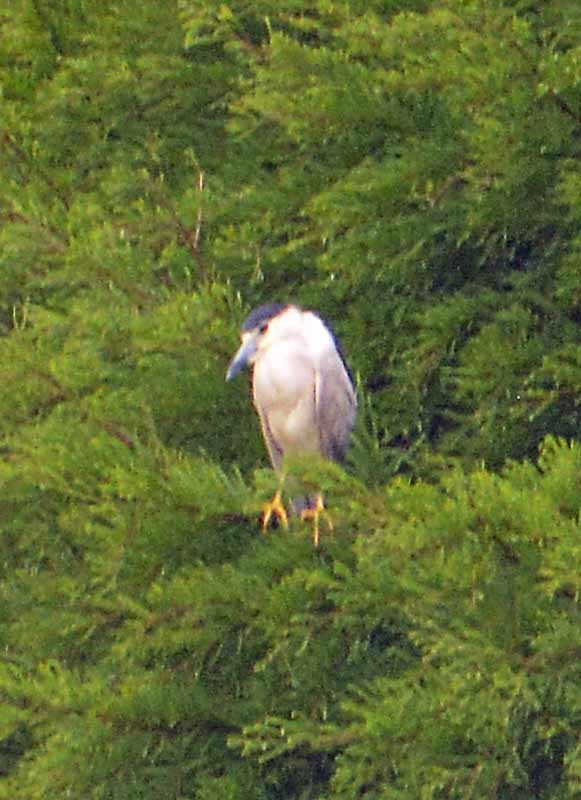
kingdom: Animalia
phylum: Chordata
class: Aves
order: Pelecaniformes
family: Ardeidae
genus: Nycticorax
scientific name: Nycticorax nycticorax
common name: Black-crowned night heron
